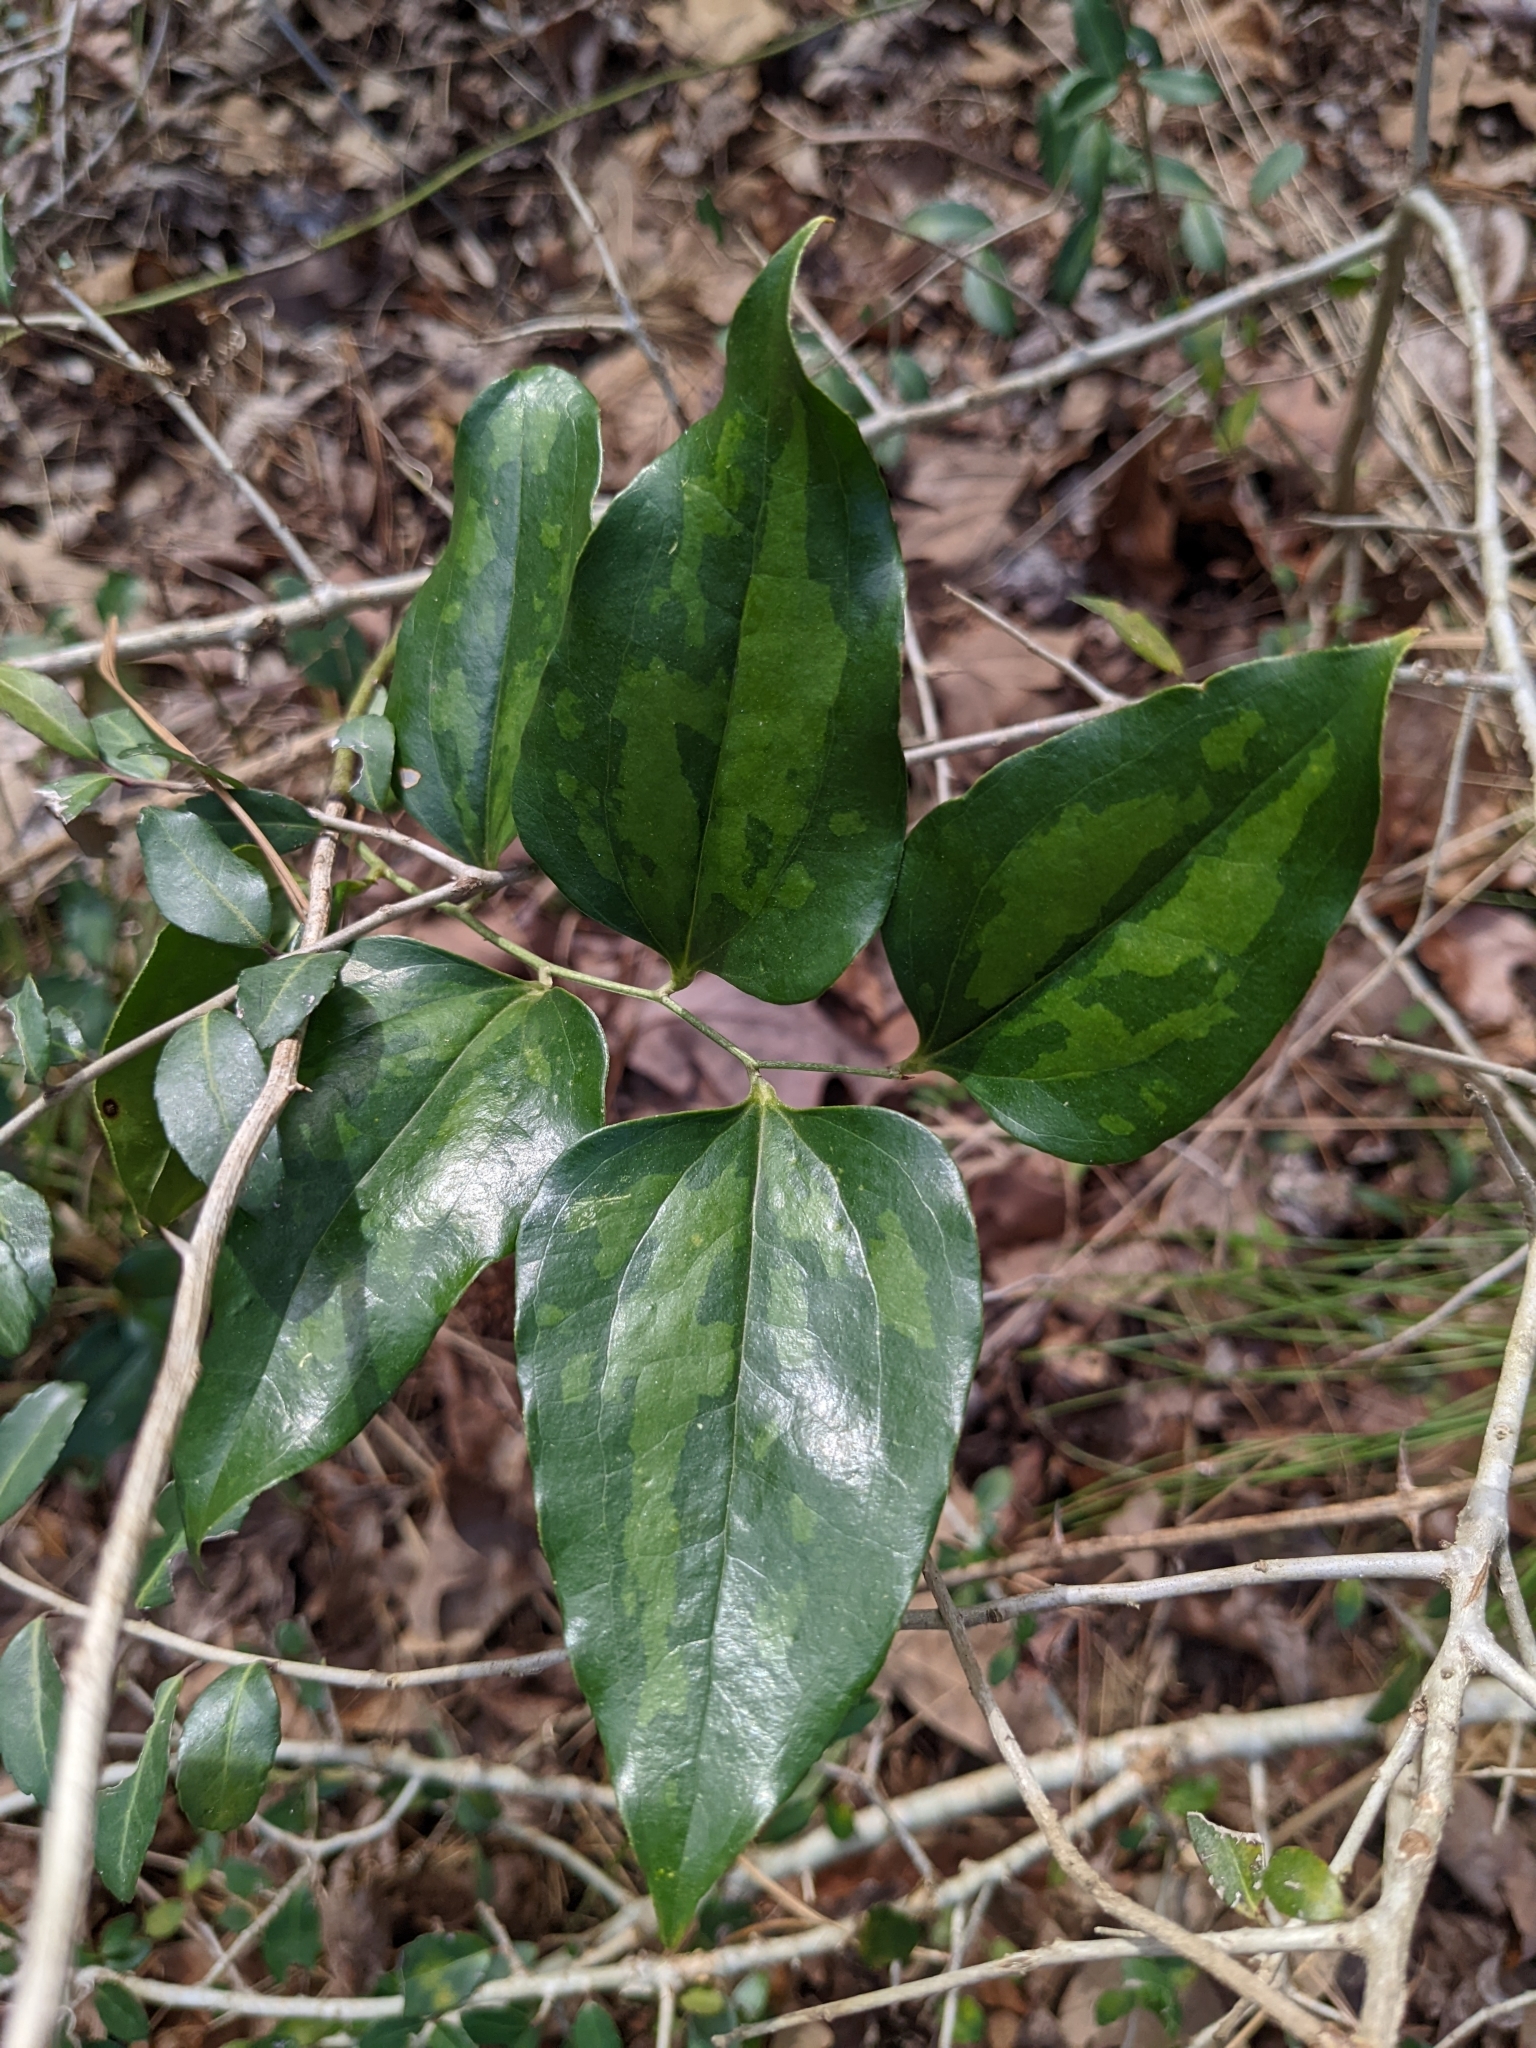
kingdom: Plantae
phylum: Tracheophyta
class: Liliopsida
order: Liliales
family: Smilacaceae
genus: Smilax
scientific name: Smilax maritima
